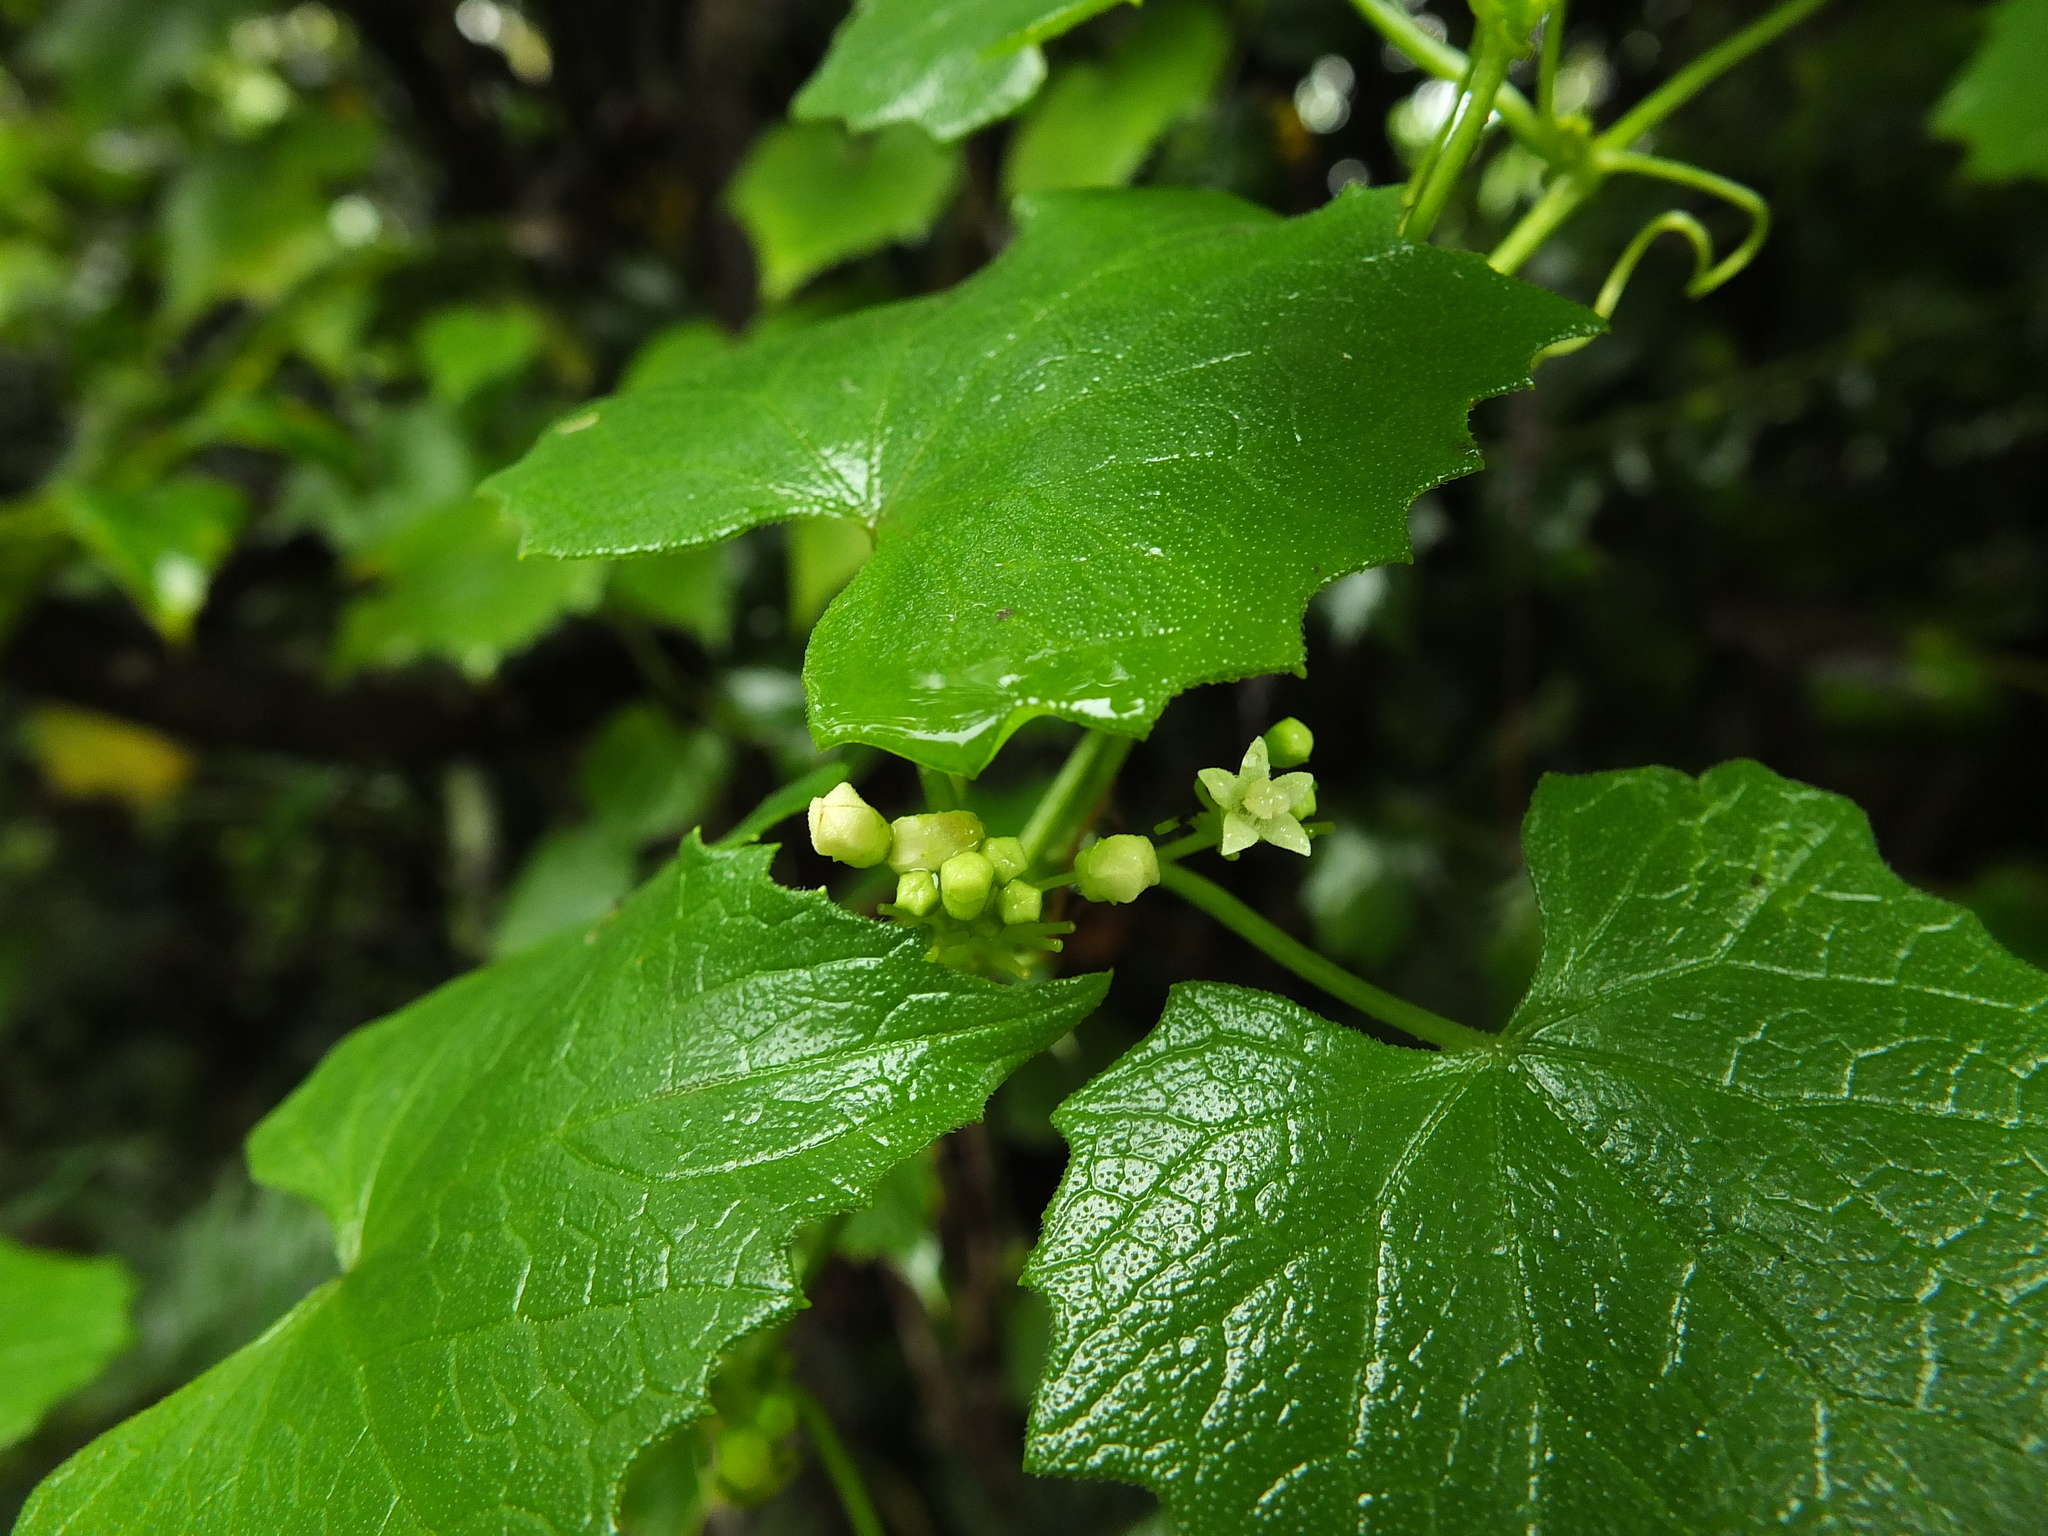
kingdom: Plantae
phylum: Tracheophyta
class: Magnoliopsida
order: Cucurbitales
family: Cucurbitaceae
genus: Zehneria
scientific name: Zehneria maysorensis
